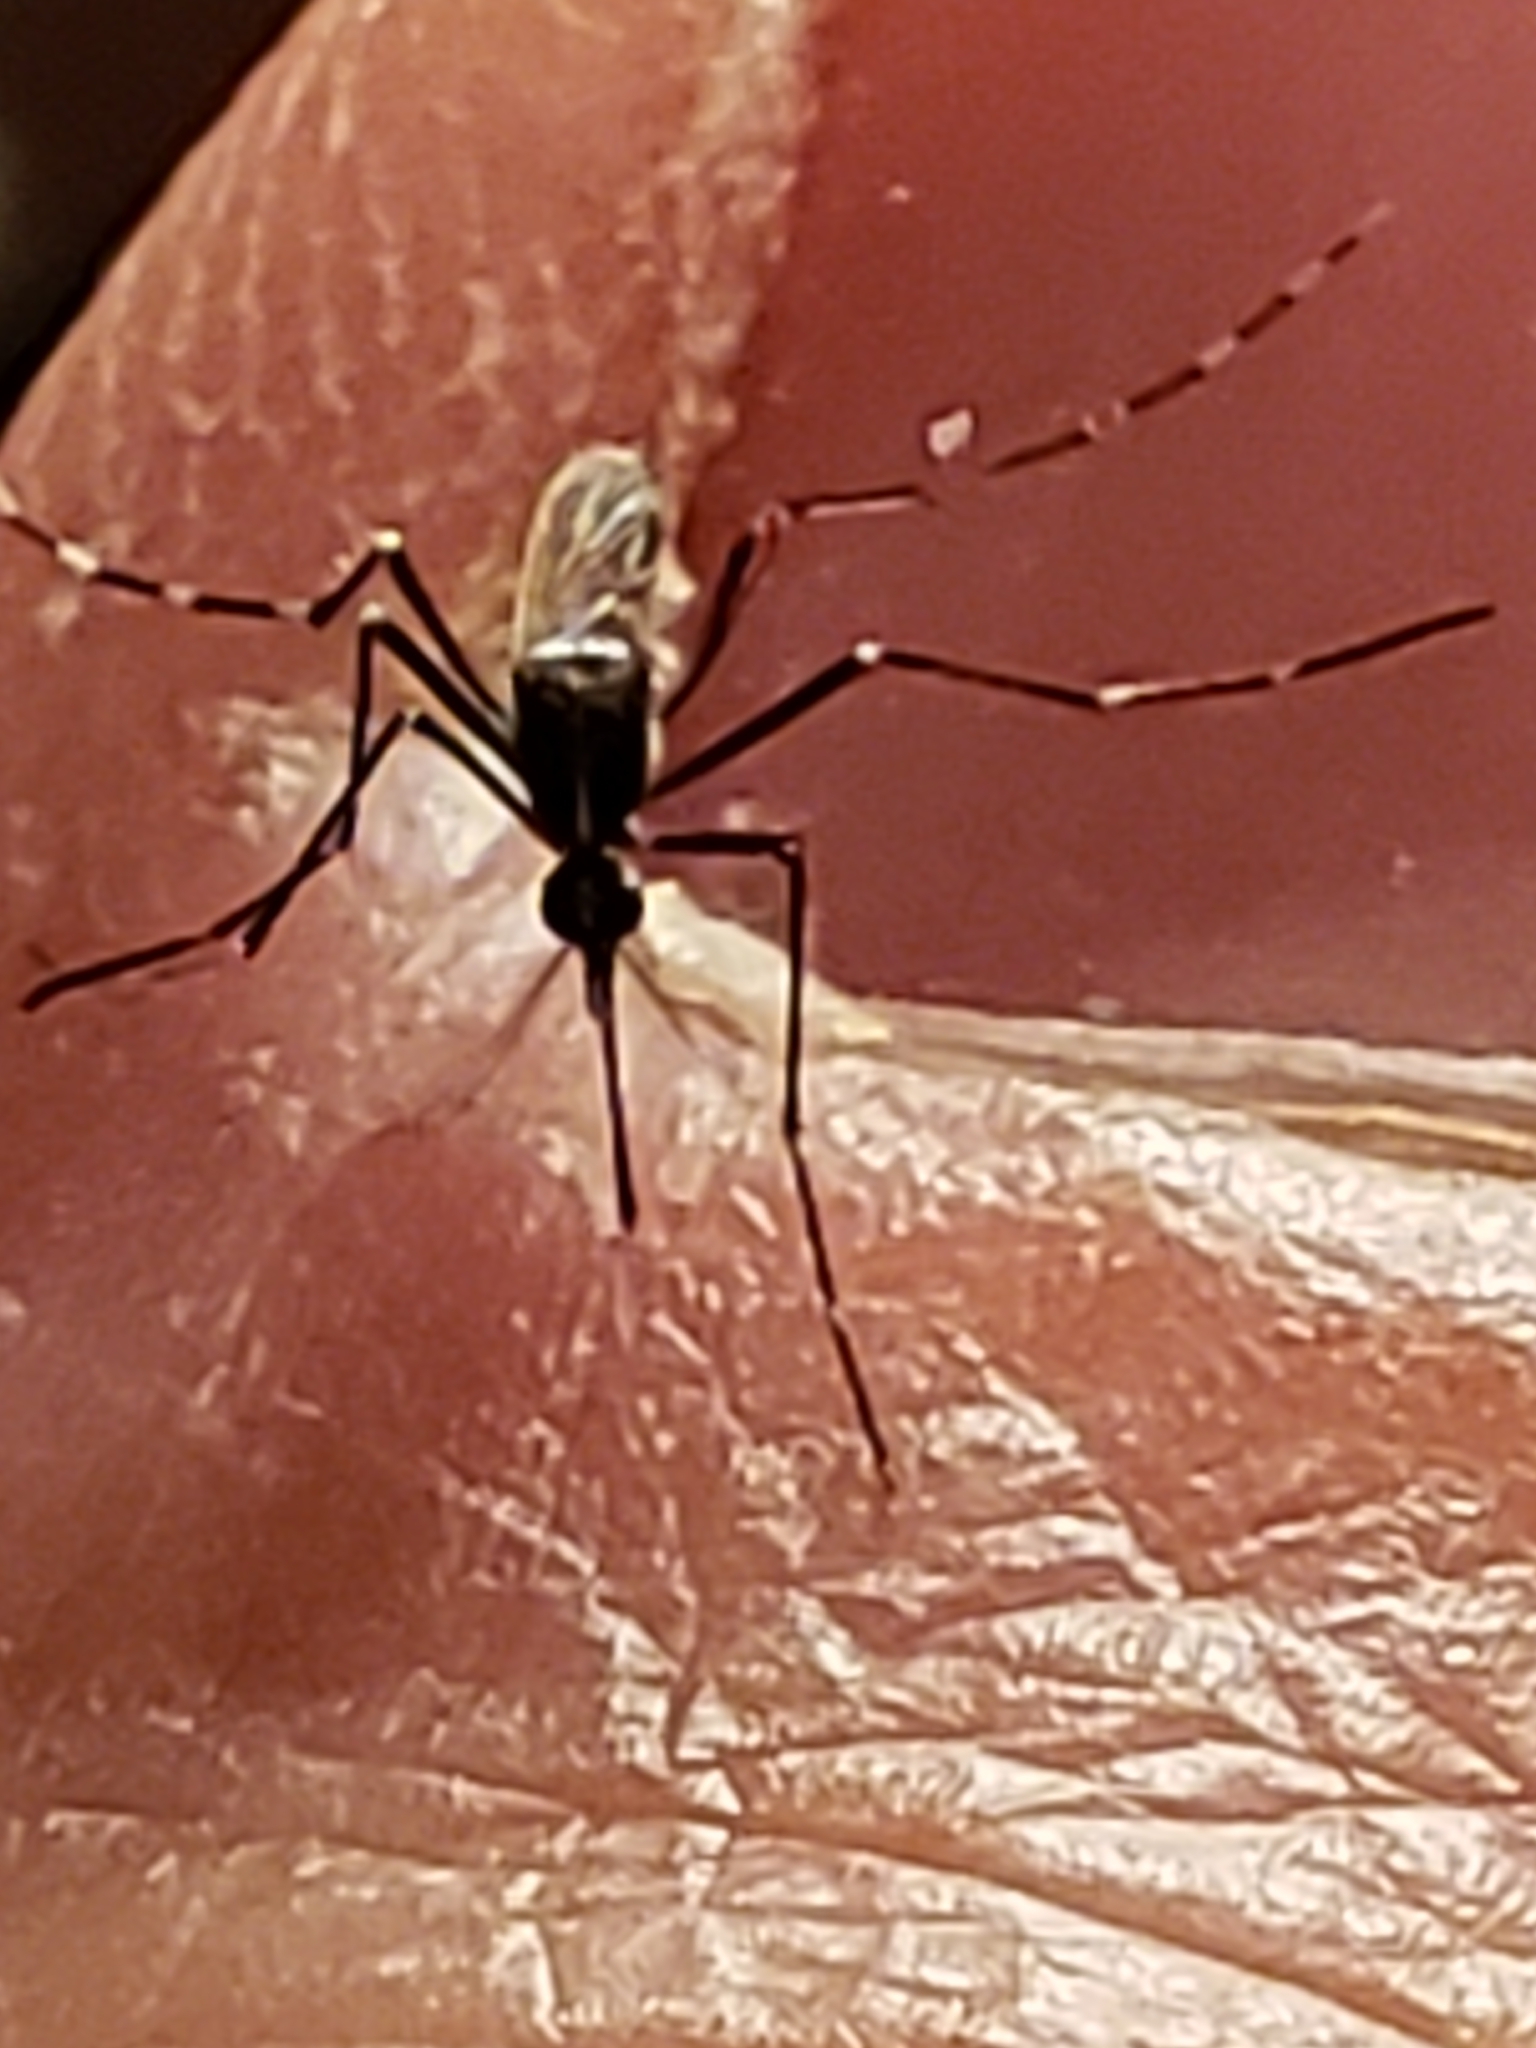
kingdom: Animalia
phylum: Arthropoda
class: Insecta
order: Diptera
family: Culicidae
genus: Aedes
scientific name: Aedes albopictus
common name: Tiger mosquito
